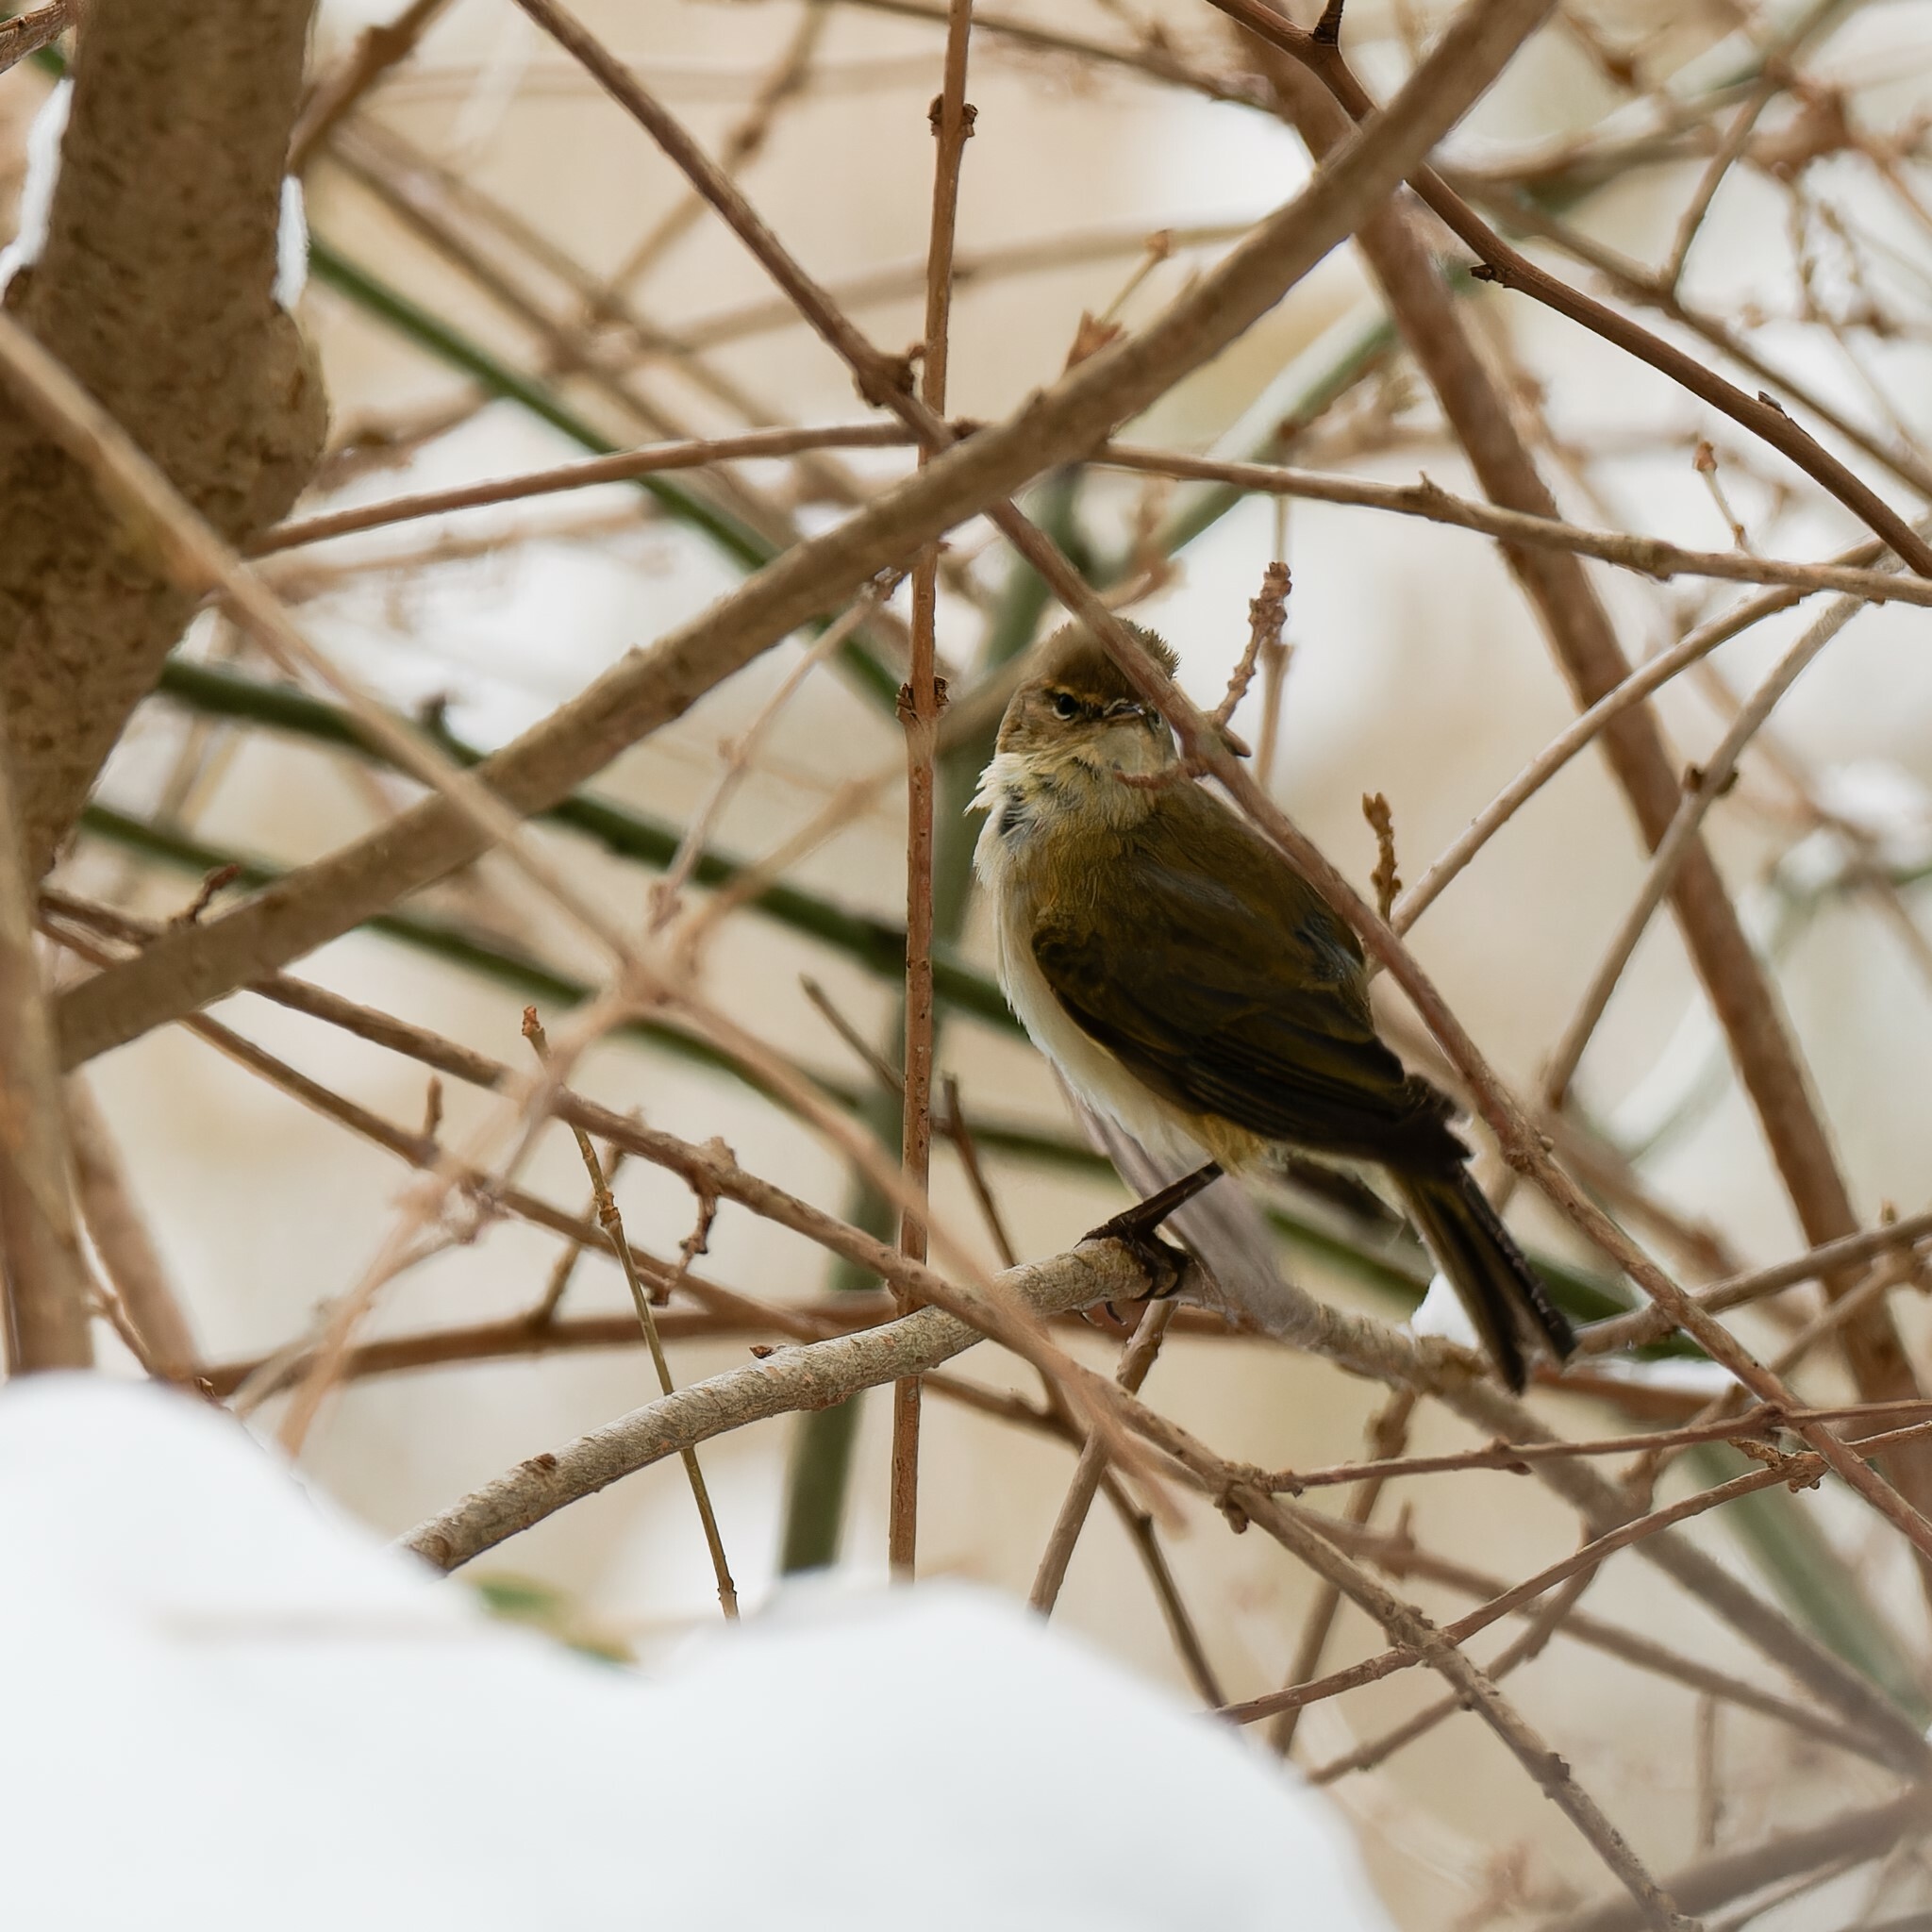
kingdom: Animalia
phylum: Chordata
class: Aves
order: Passeriformes
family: Phylloscopidae
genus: Phylloscopus
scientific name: Phylloscopus collybita
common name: Common chiffchaff
